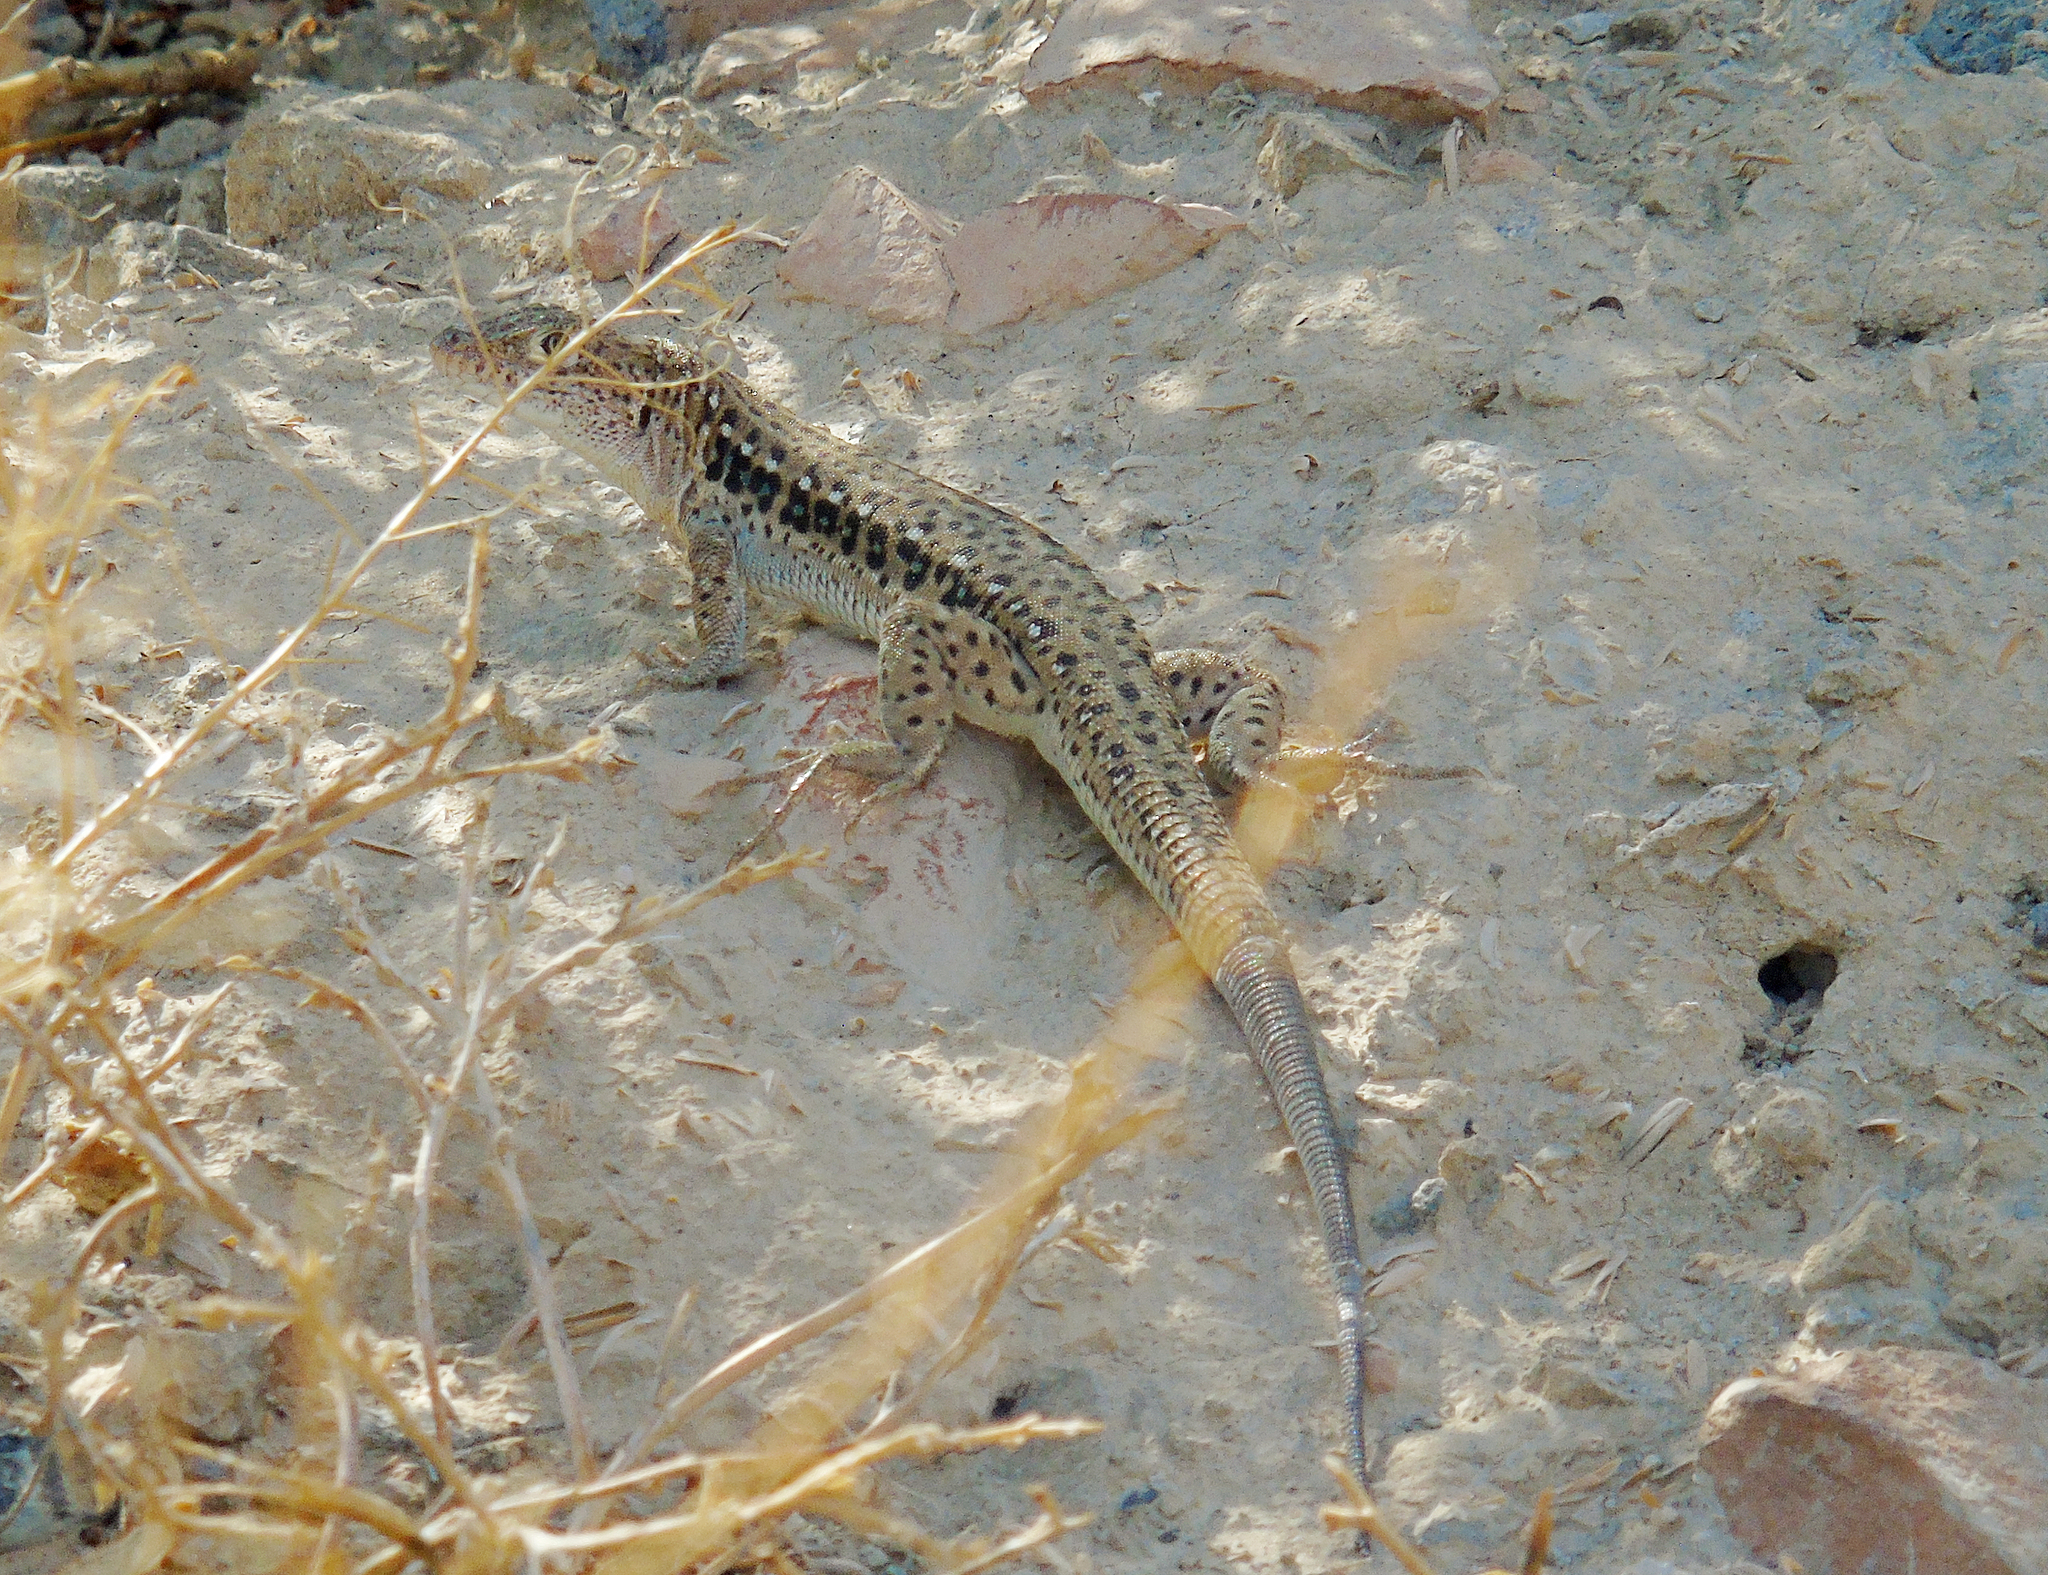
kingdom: Animalia
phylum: Chordata
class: Squamata
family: Lacertidae
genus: Eremias
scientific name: Eremias velox
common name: Central asian racerunner
